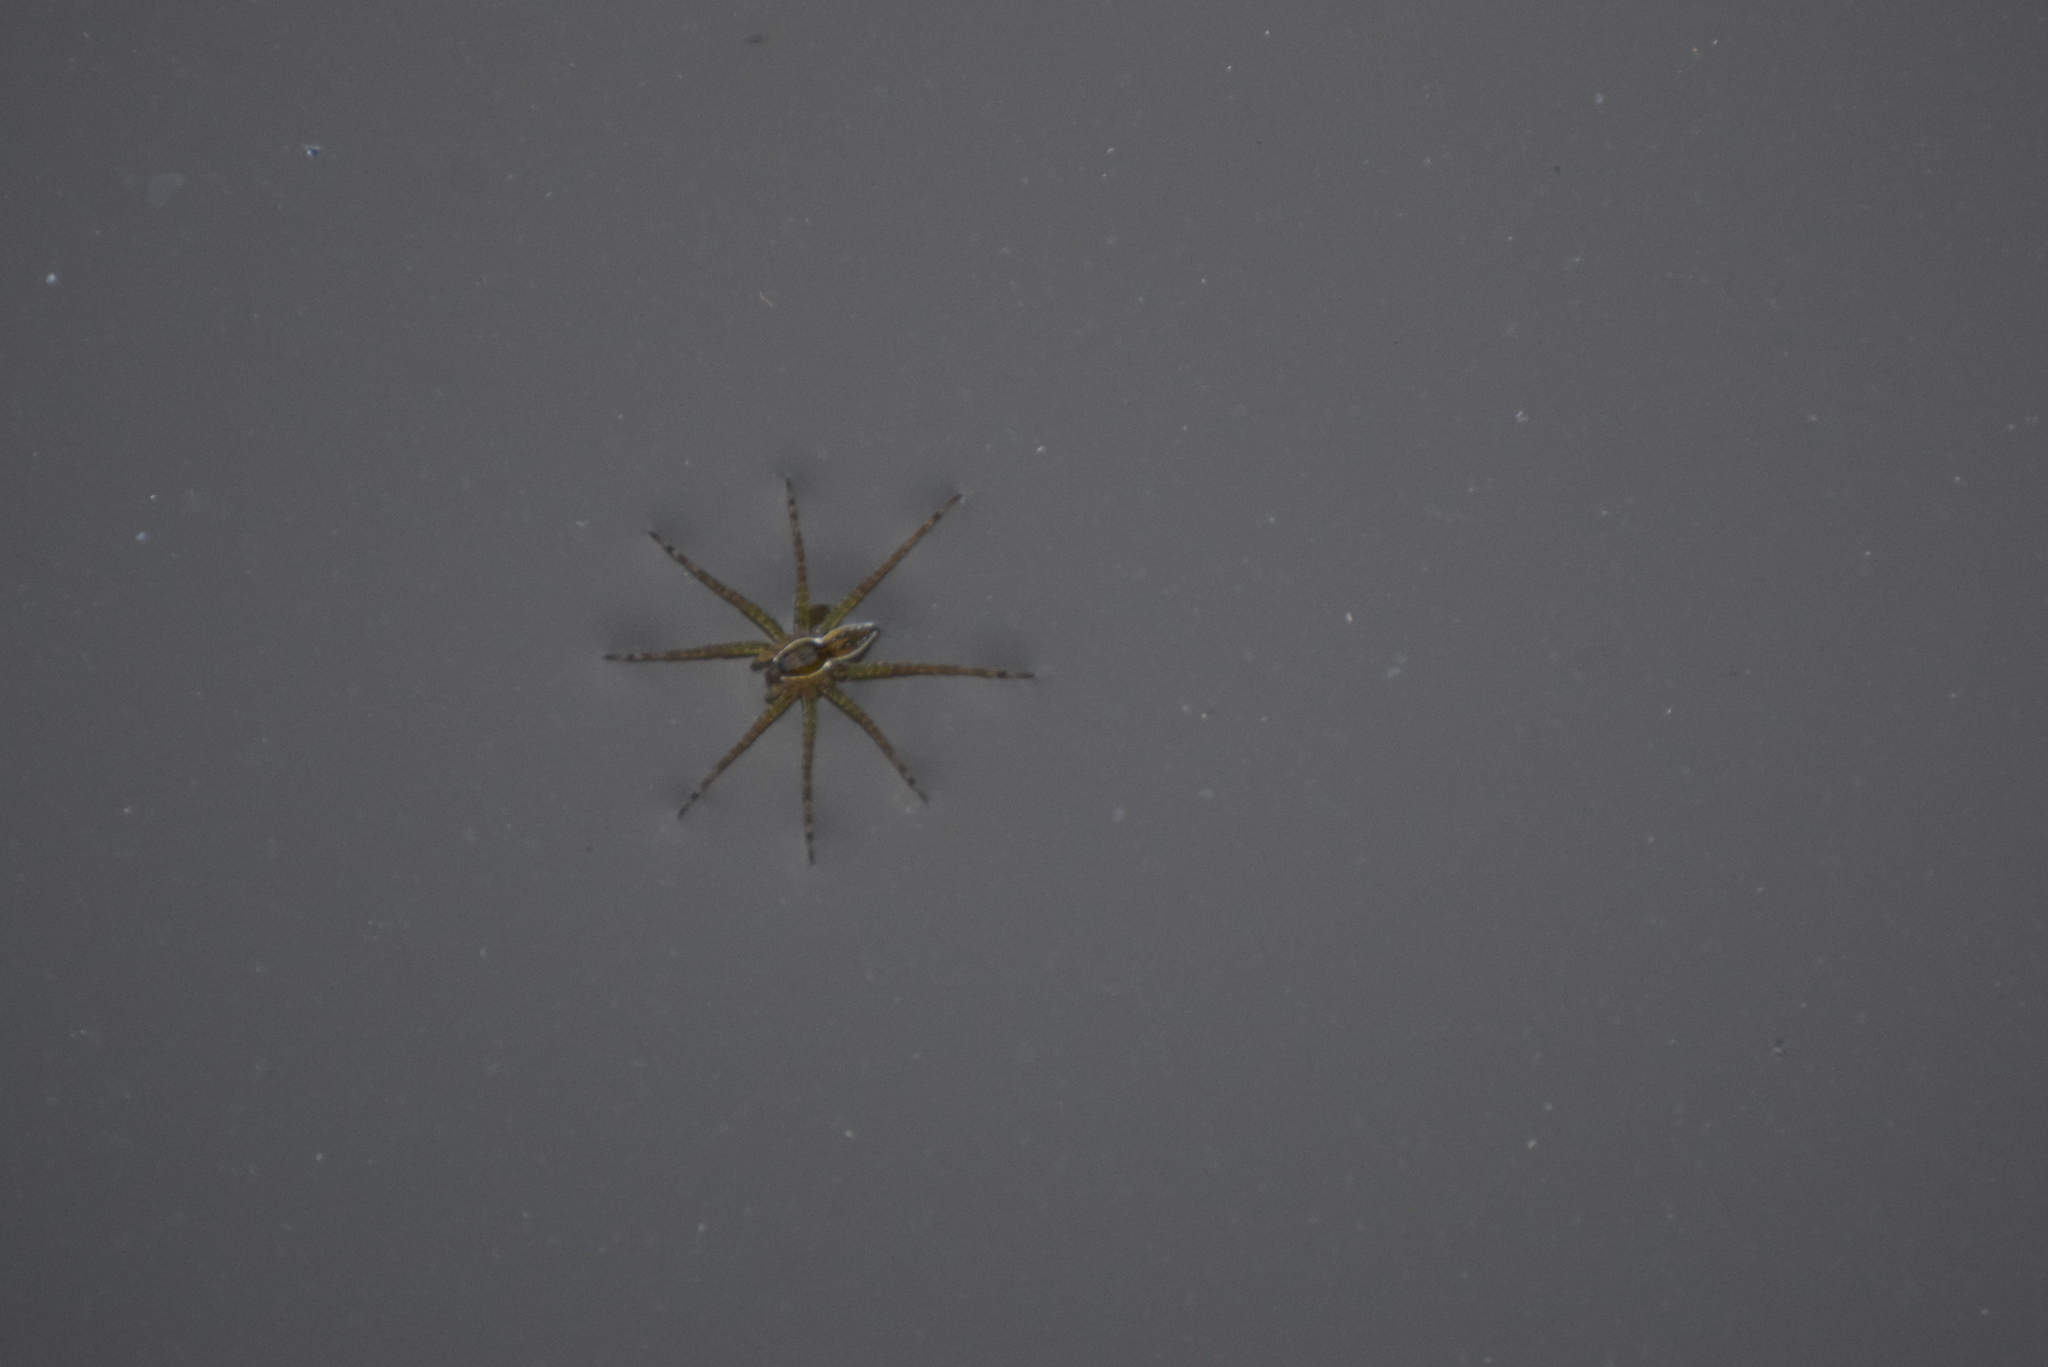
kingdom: Animalia
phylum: Arthropoda
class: Arachnida
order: Araneae
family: Pisauridae
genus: Dolomedes
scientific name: Dolomedes triton
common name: Six-spotted fishing spider
